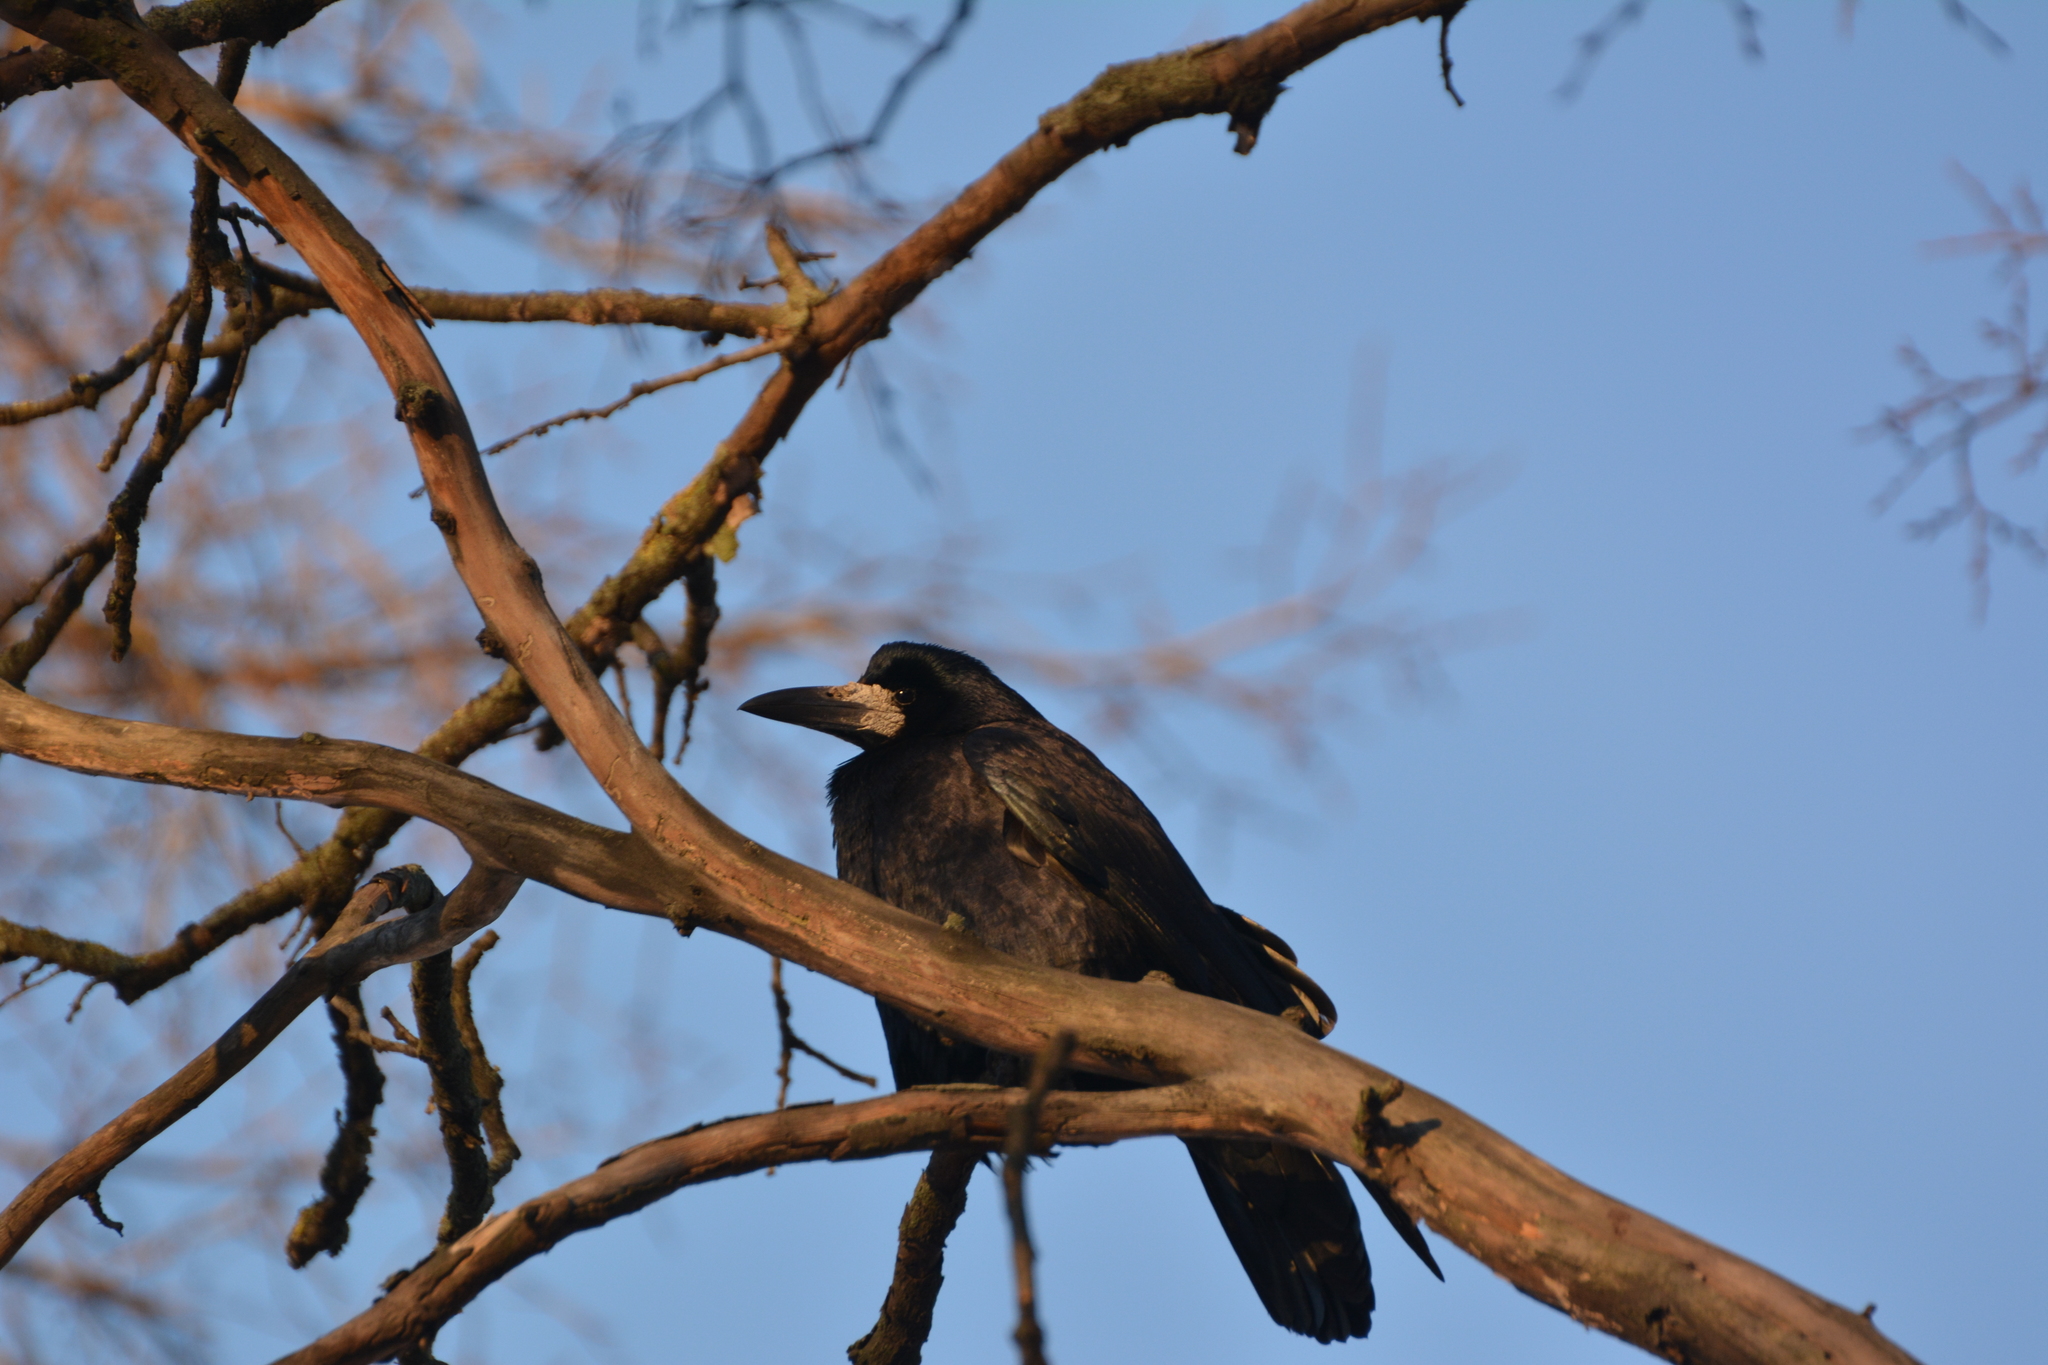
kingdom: Animalia
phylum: Chordata
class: Aves
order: Passeriformes
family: Corvidae
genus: Corvus
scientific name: Corvus frugilegus
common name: Rook
